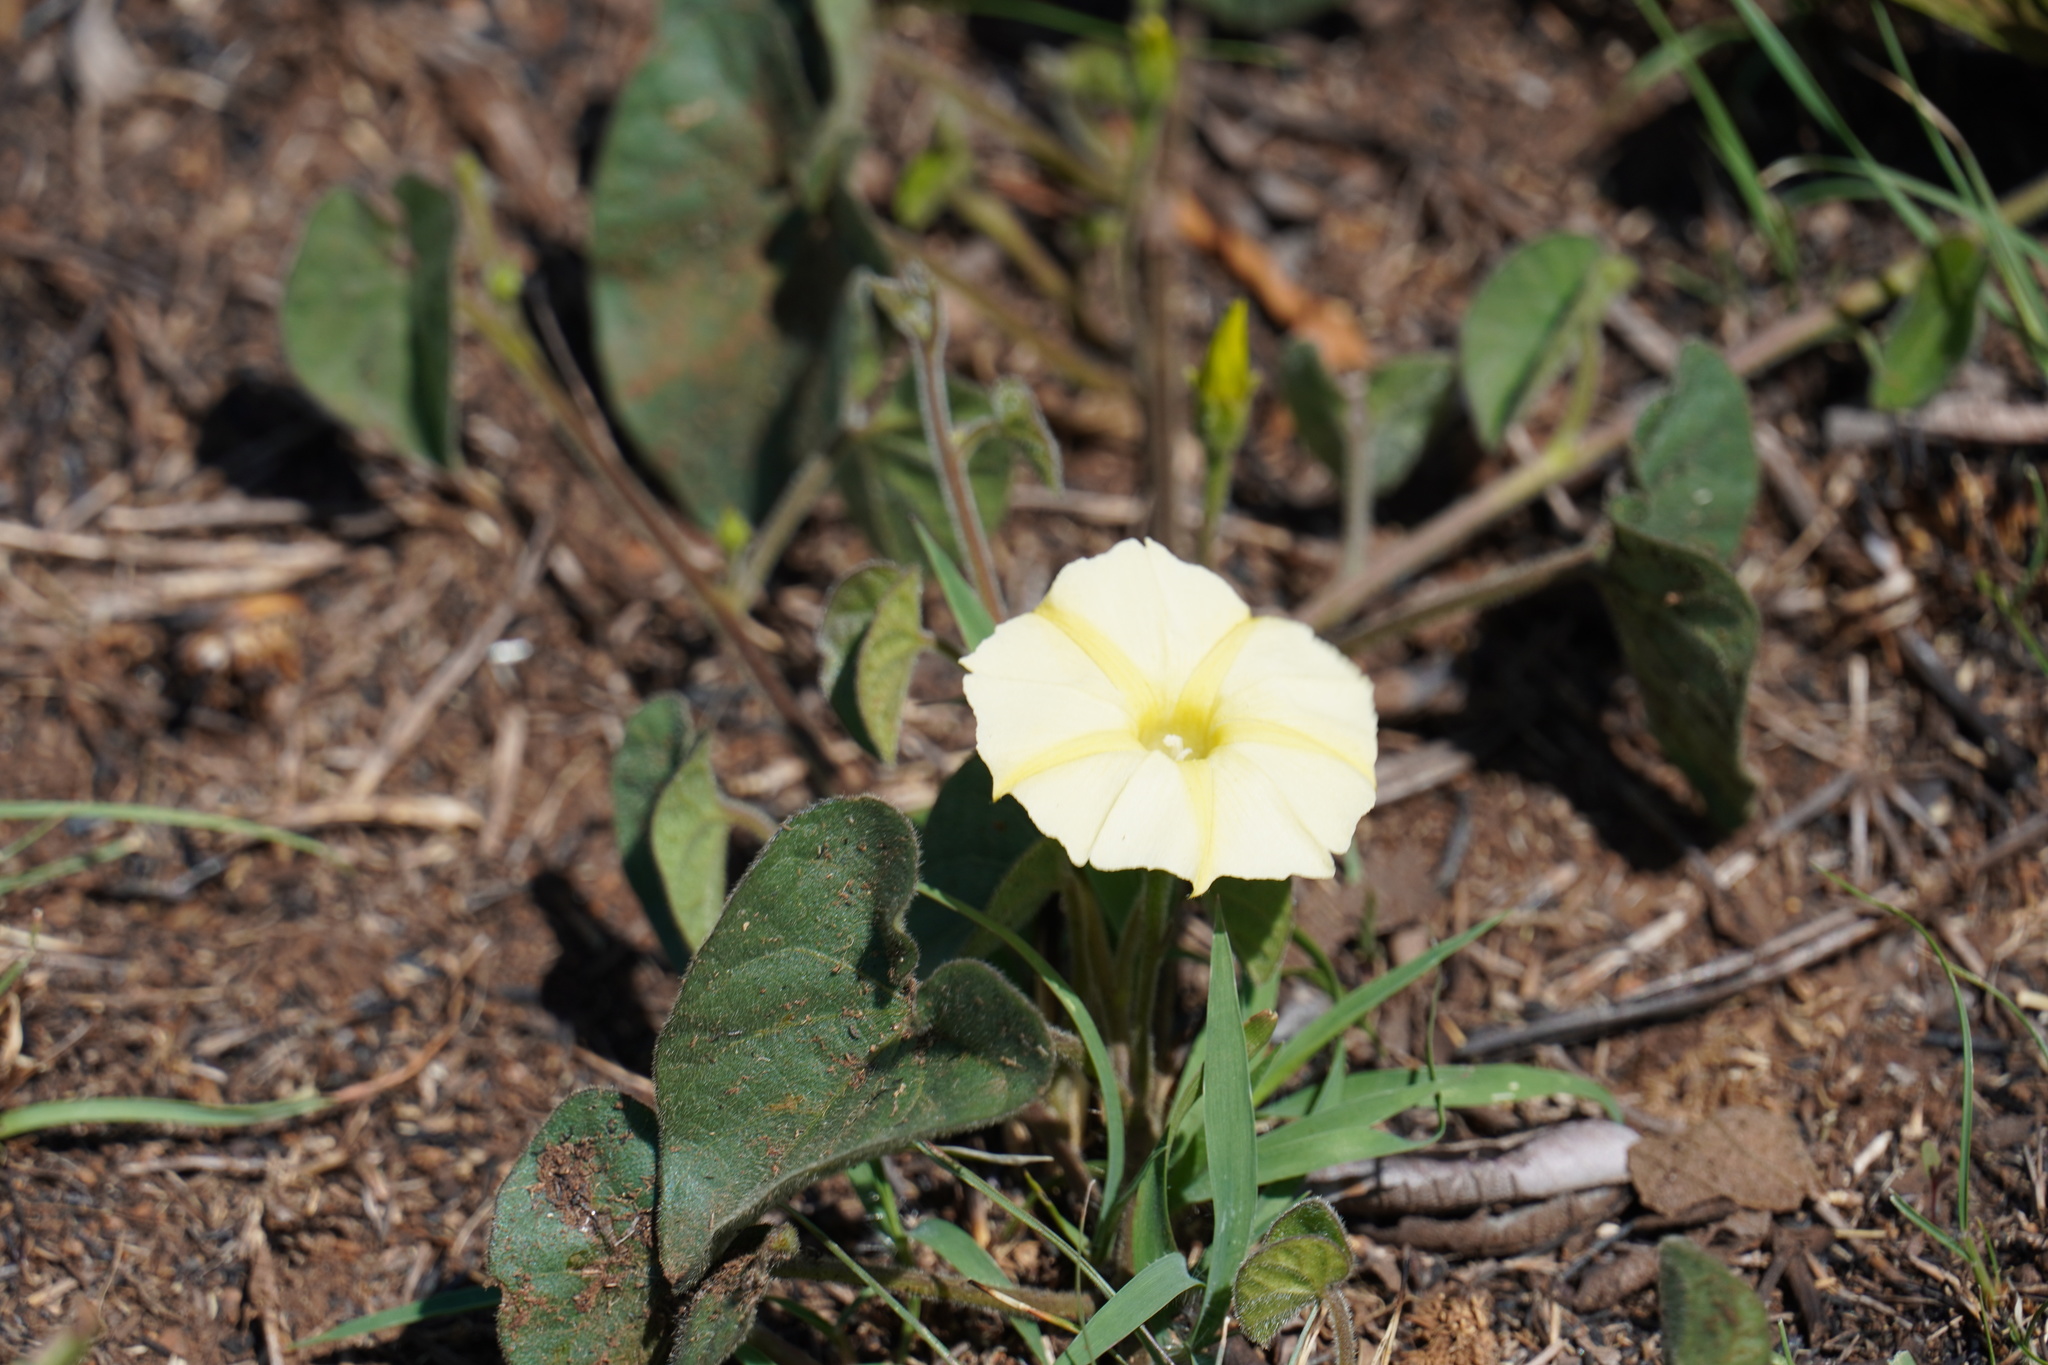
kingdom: Plantae
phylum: Tracheophyta
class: Magnoliopsida
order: Solanales
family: Convolvulaceae
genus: Ipomoea
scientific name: Ipomoea obscura
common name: Obscure morning-glory
